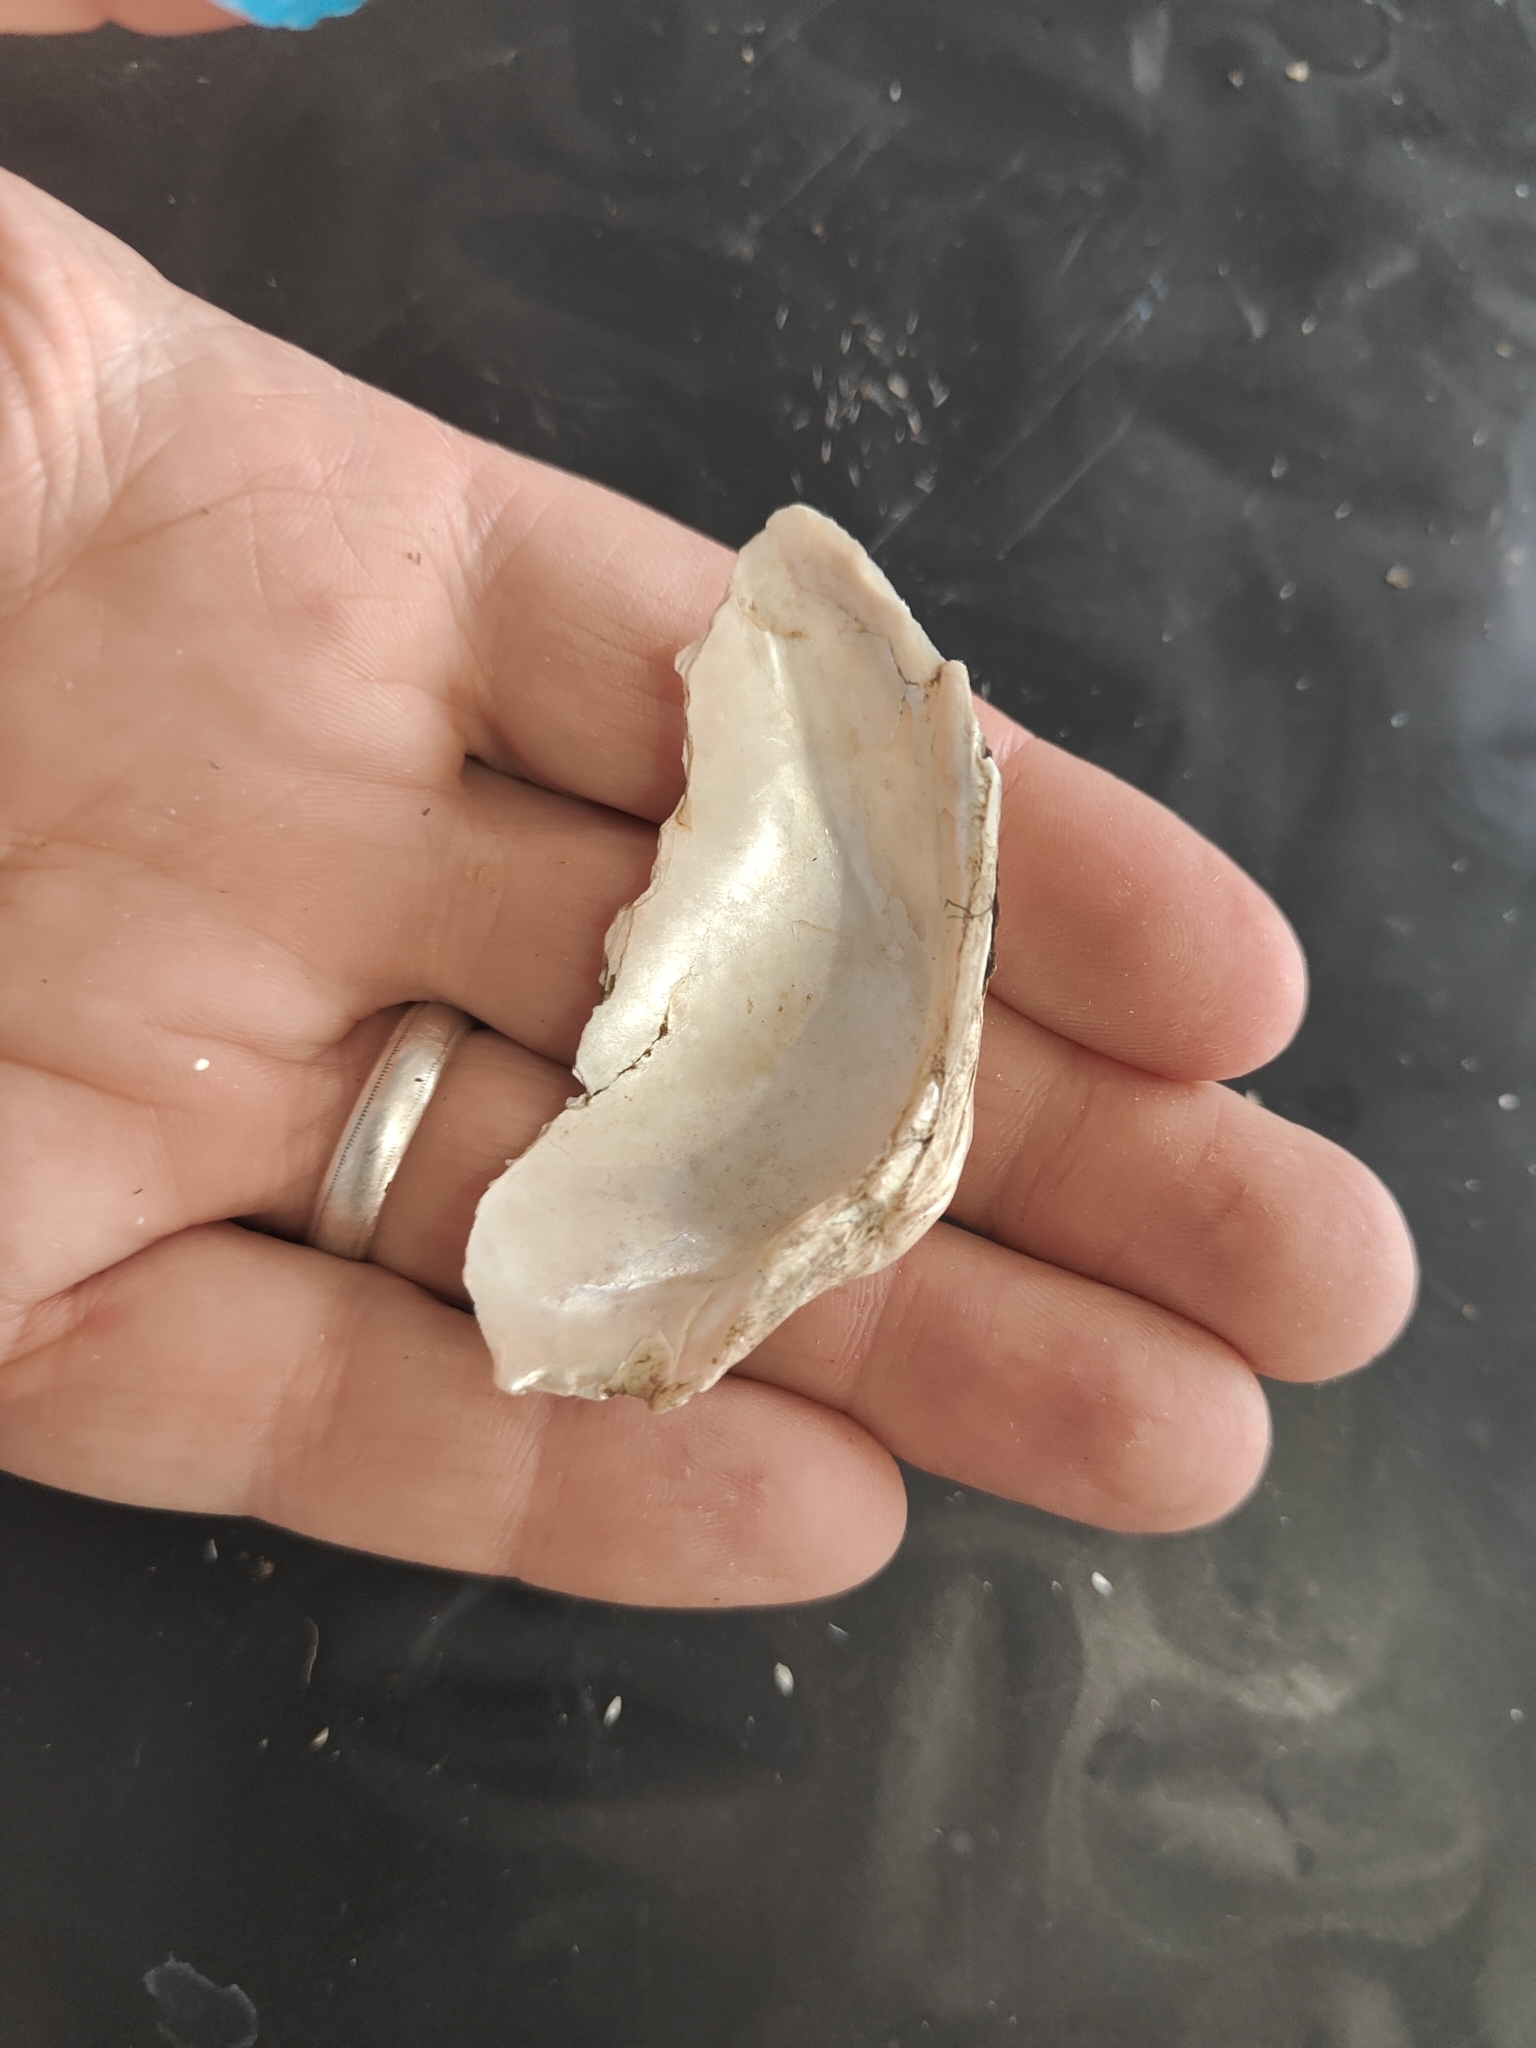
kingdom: Animalia
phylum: Mollusca
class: Bivalvia
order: Unionida
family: Unionidae
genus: Alasmidonta
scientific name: Alasmidonta marginata
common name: Elktoe
